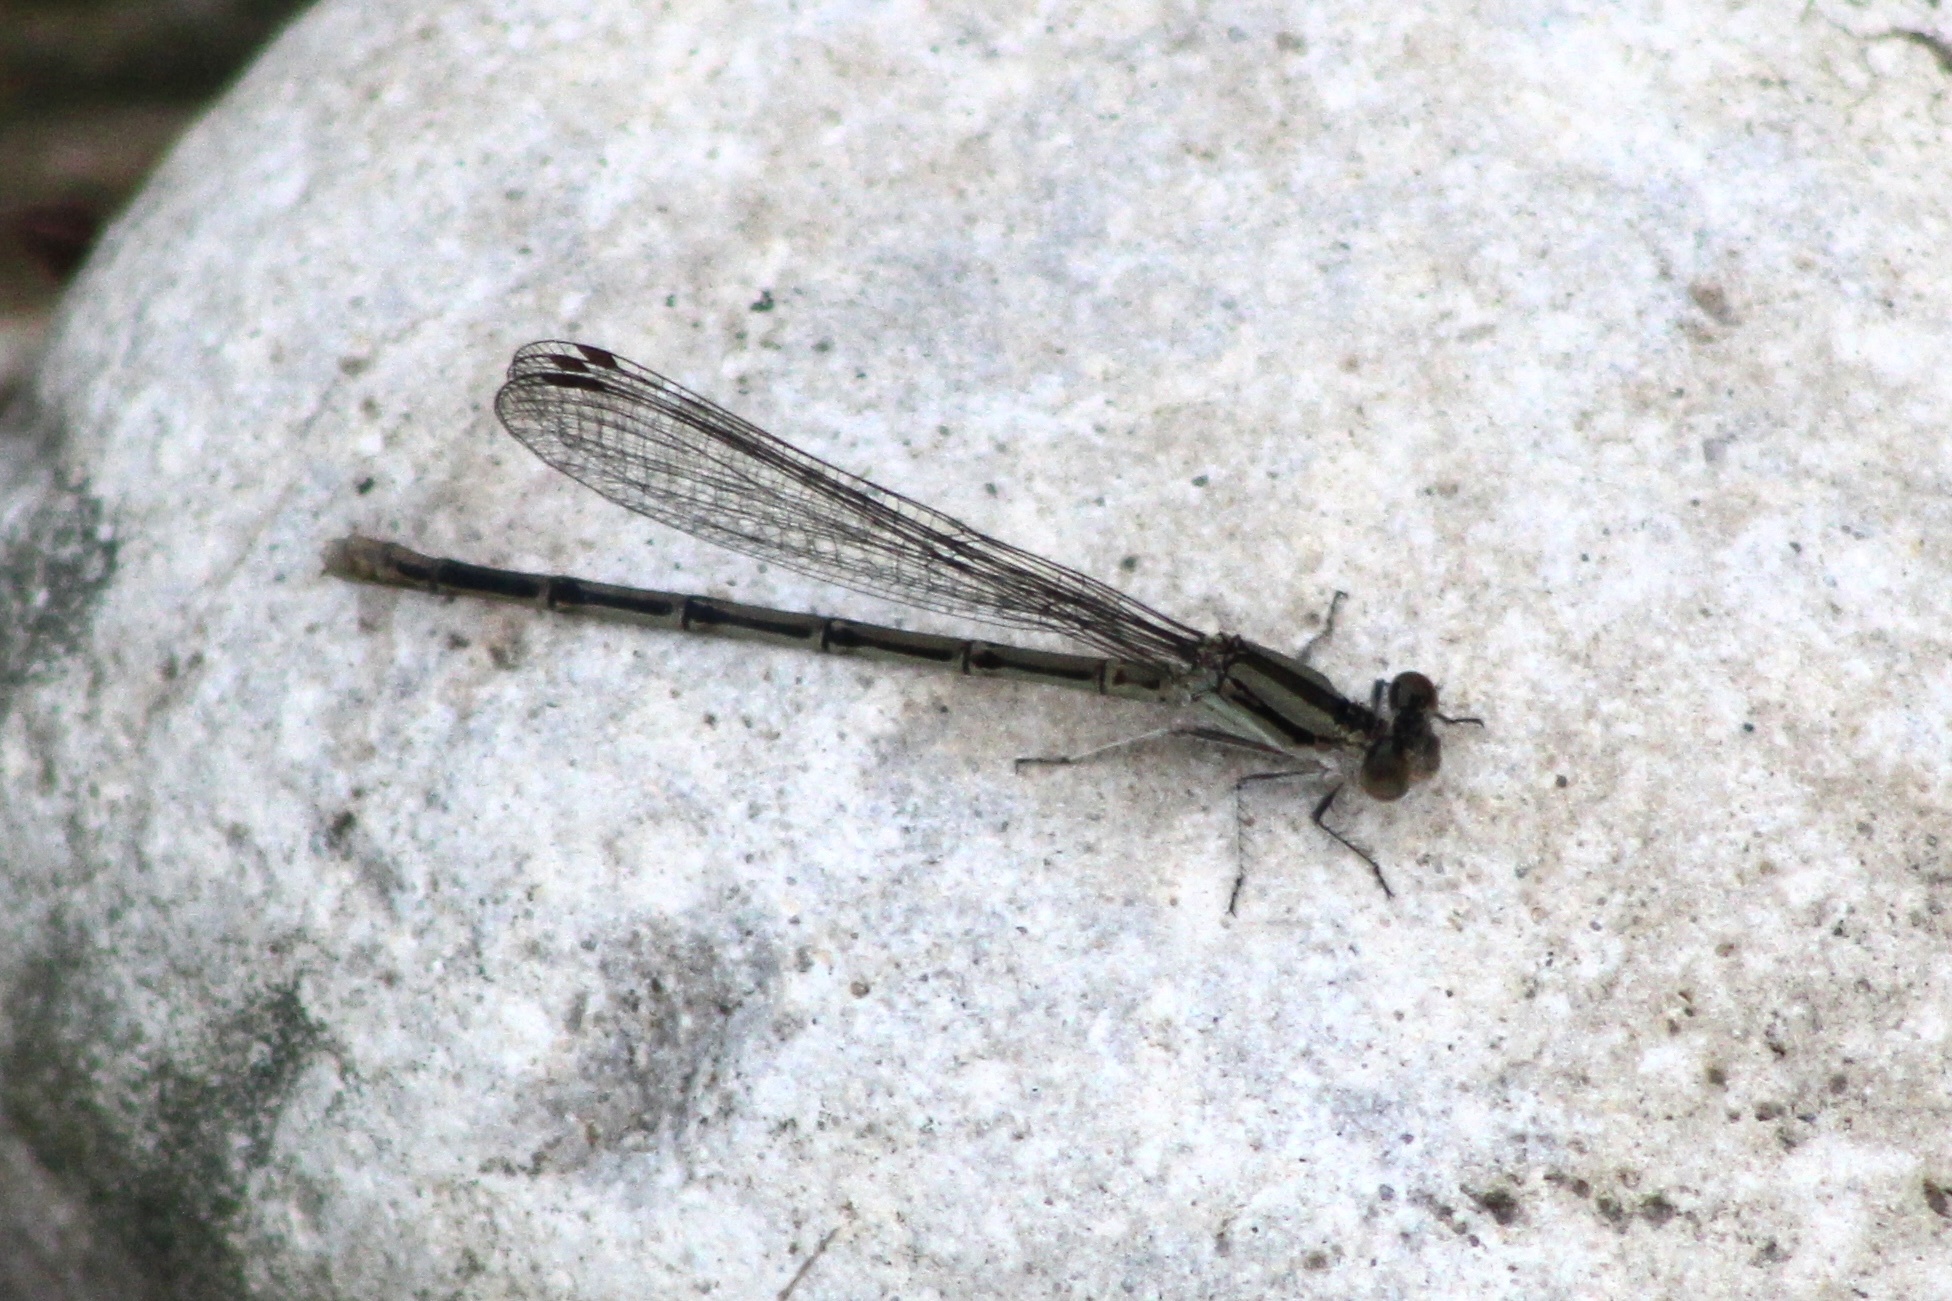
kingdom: Animalia
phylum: Arthropoda
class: Insecta
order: Odonata
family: Coenagrionidae
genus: Argia
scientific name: Argia fumipennis
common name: Variable dancer
